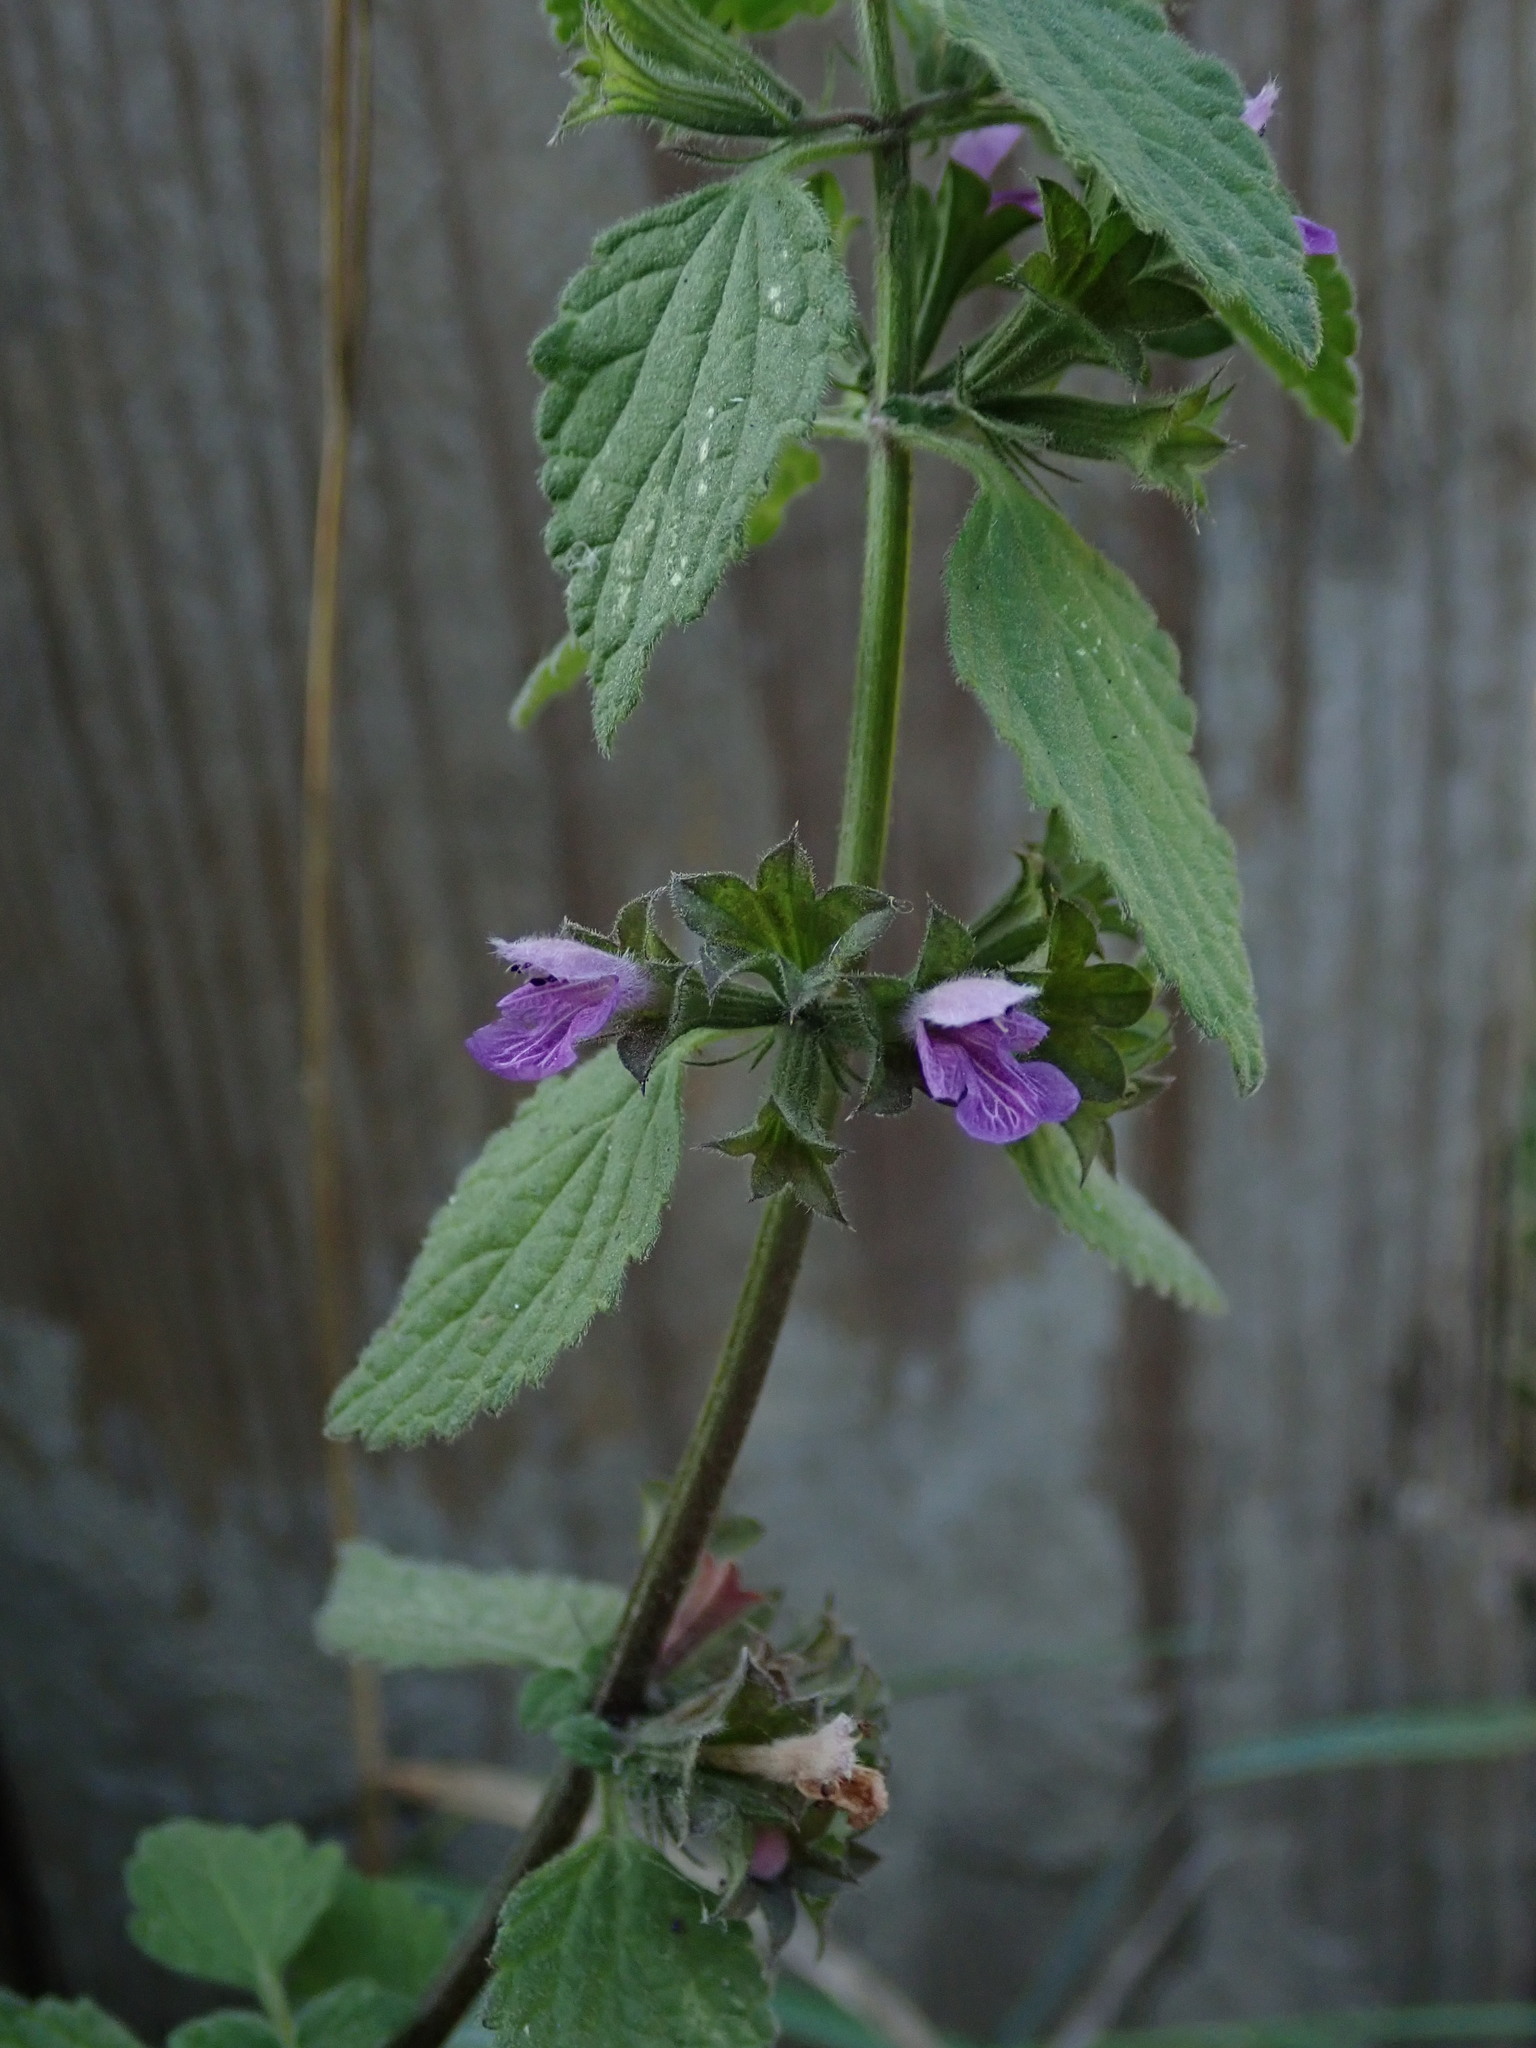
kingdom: Plantae
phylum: Tracheophyta
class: Magnoliopsida
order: Lamiales
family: Lamiaceae
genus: Ballota
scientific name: Ballota nigra
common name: Black horehound
